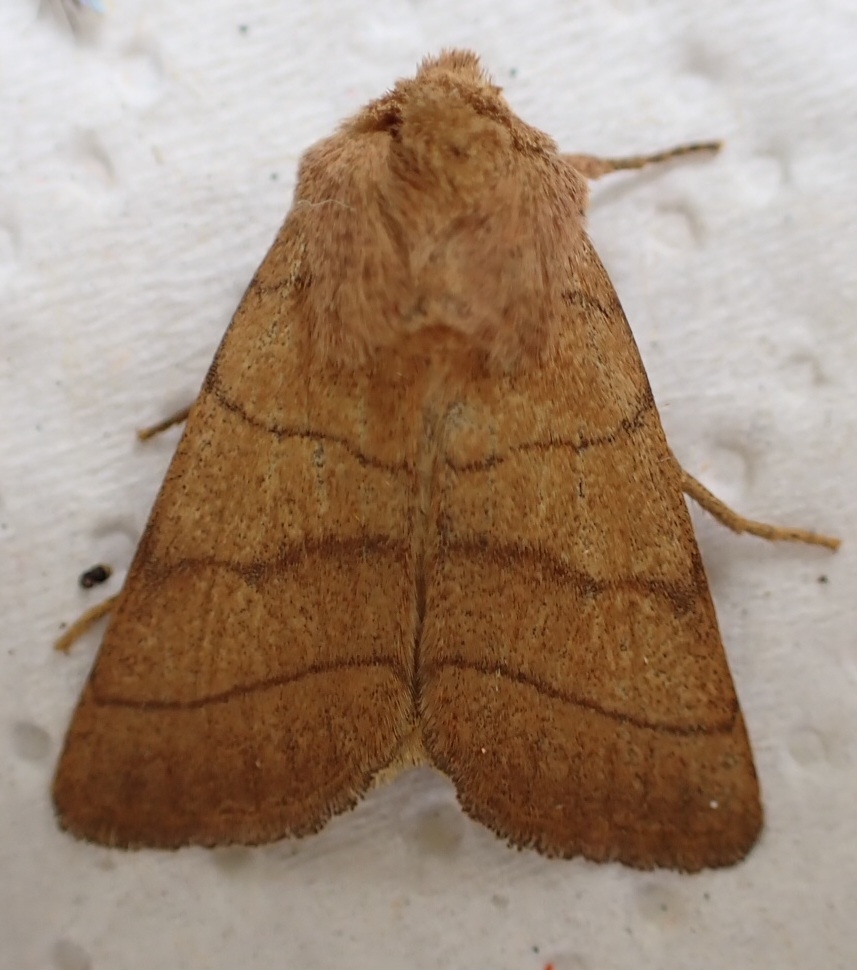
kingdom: Animalia
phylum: Arthropoda
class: Insecta
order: Lepidoptera
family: Noctuidae
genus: Charanyca
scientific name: Charanyca trigrammica
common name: Treble lines
